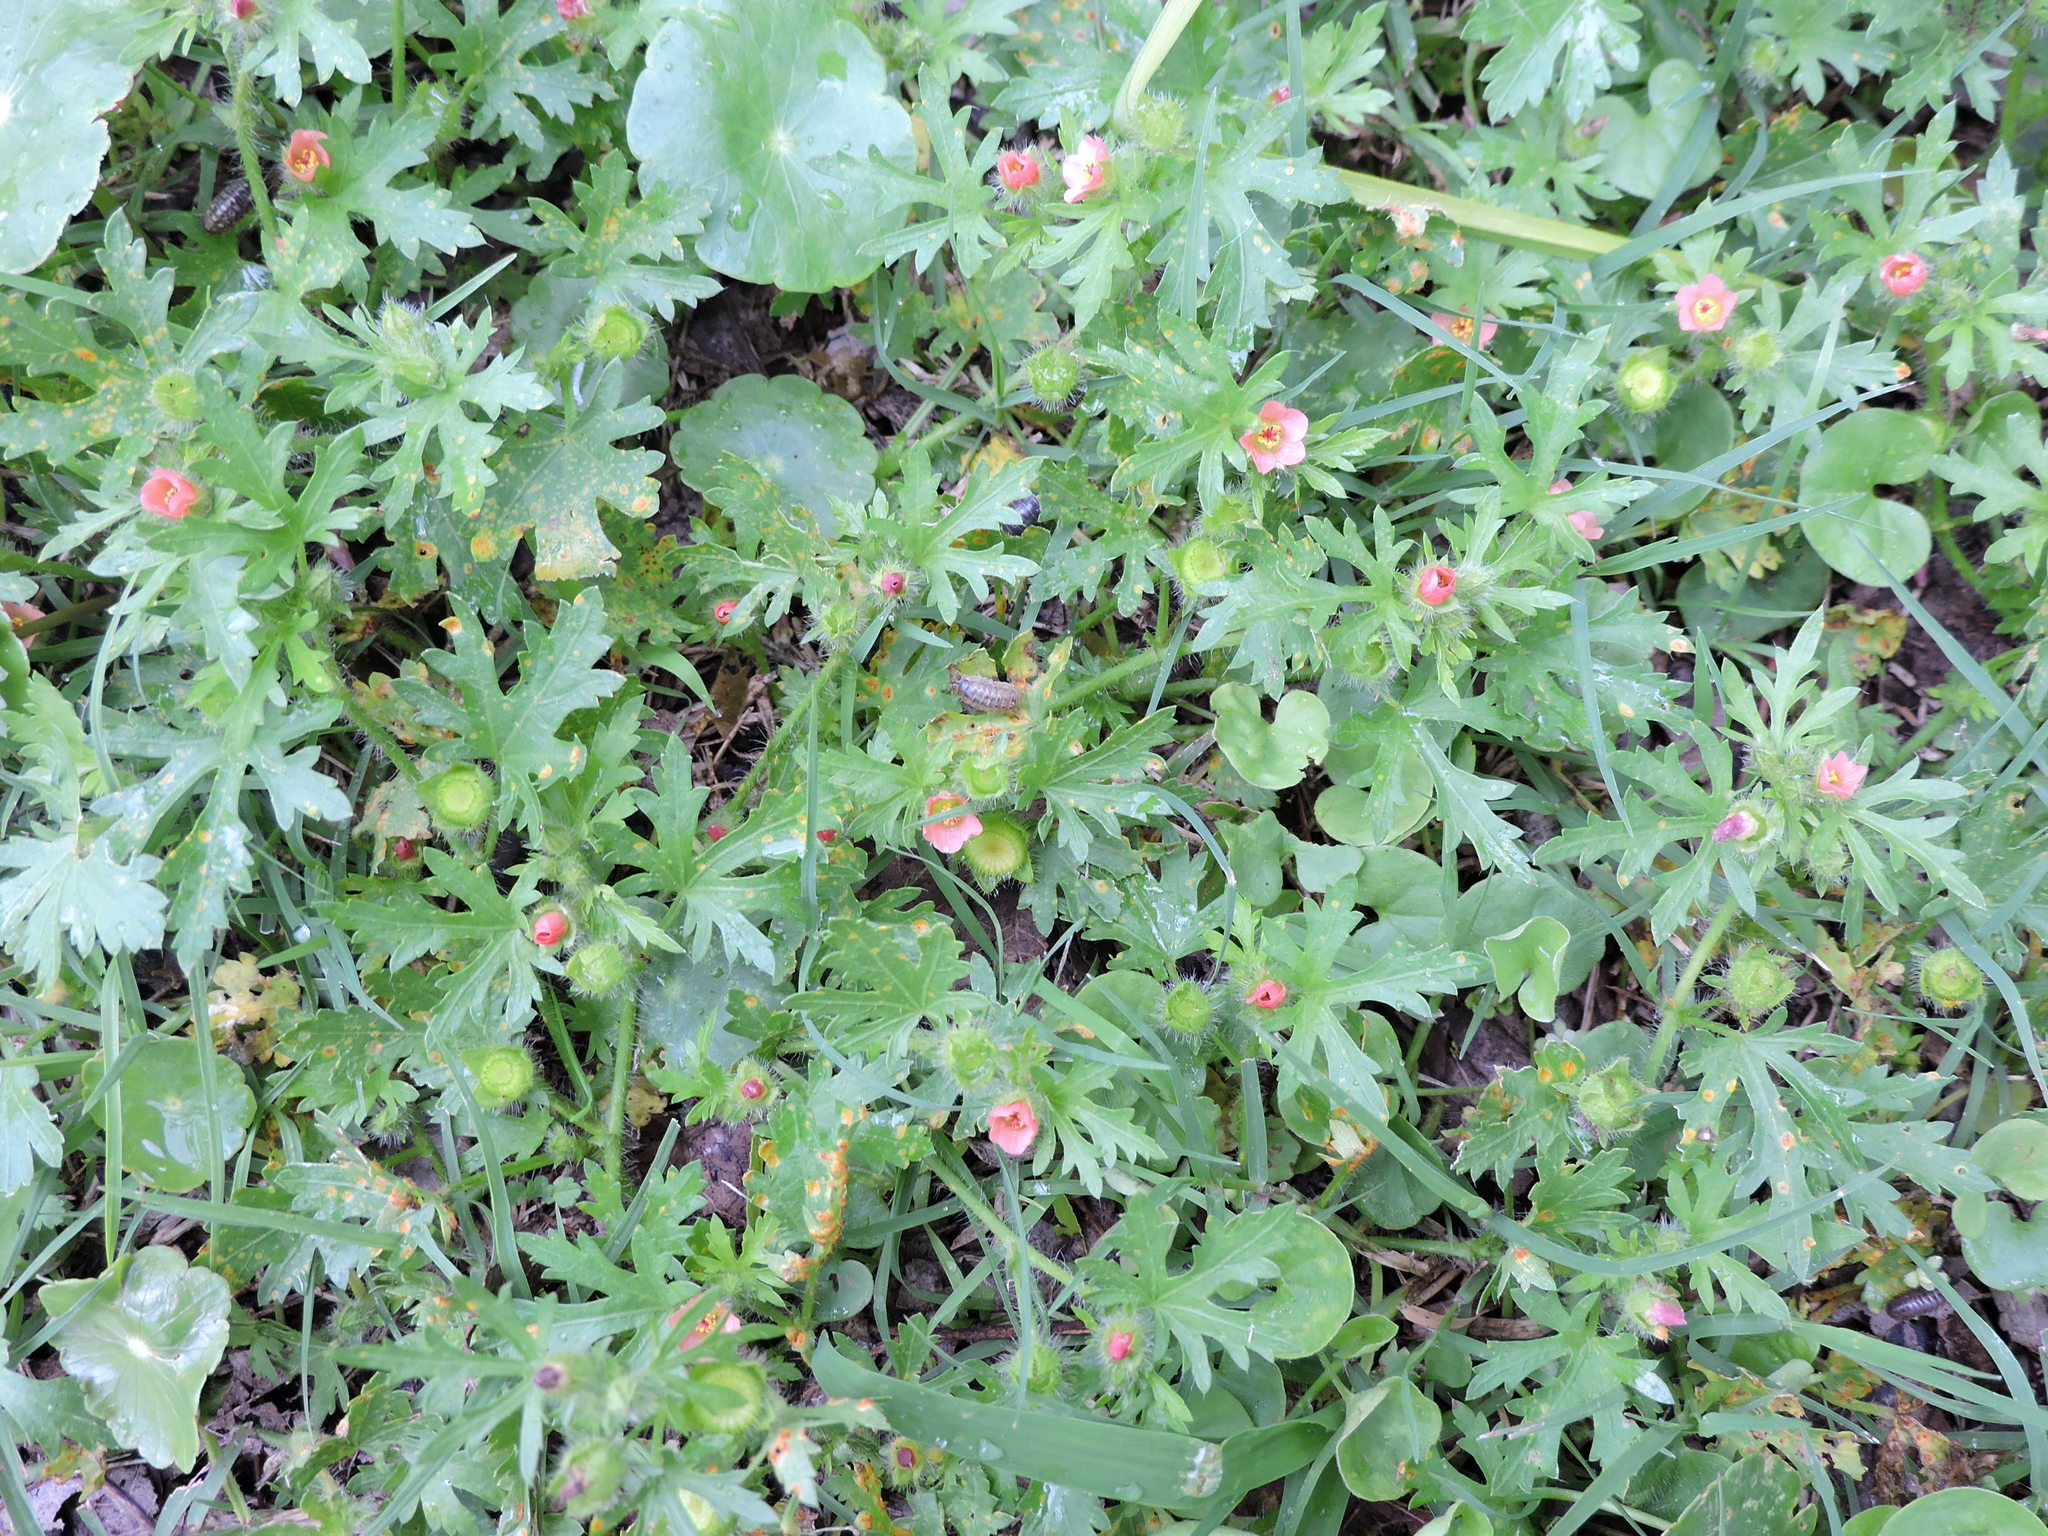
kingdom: Plantae
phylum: Tracheophyta
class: Magnoliopsida
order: Malvales
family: Malvaceae
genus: Modiola
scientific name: Modiola caroliniana
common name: Carolina bristlemallow
